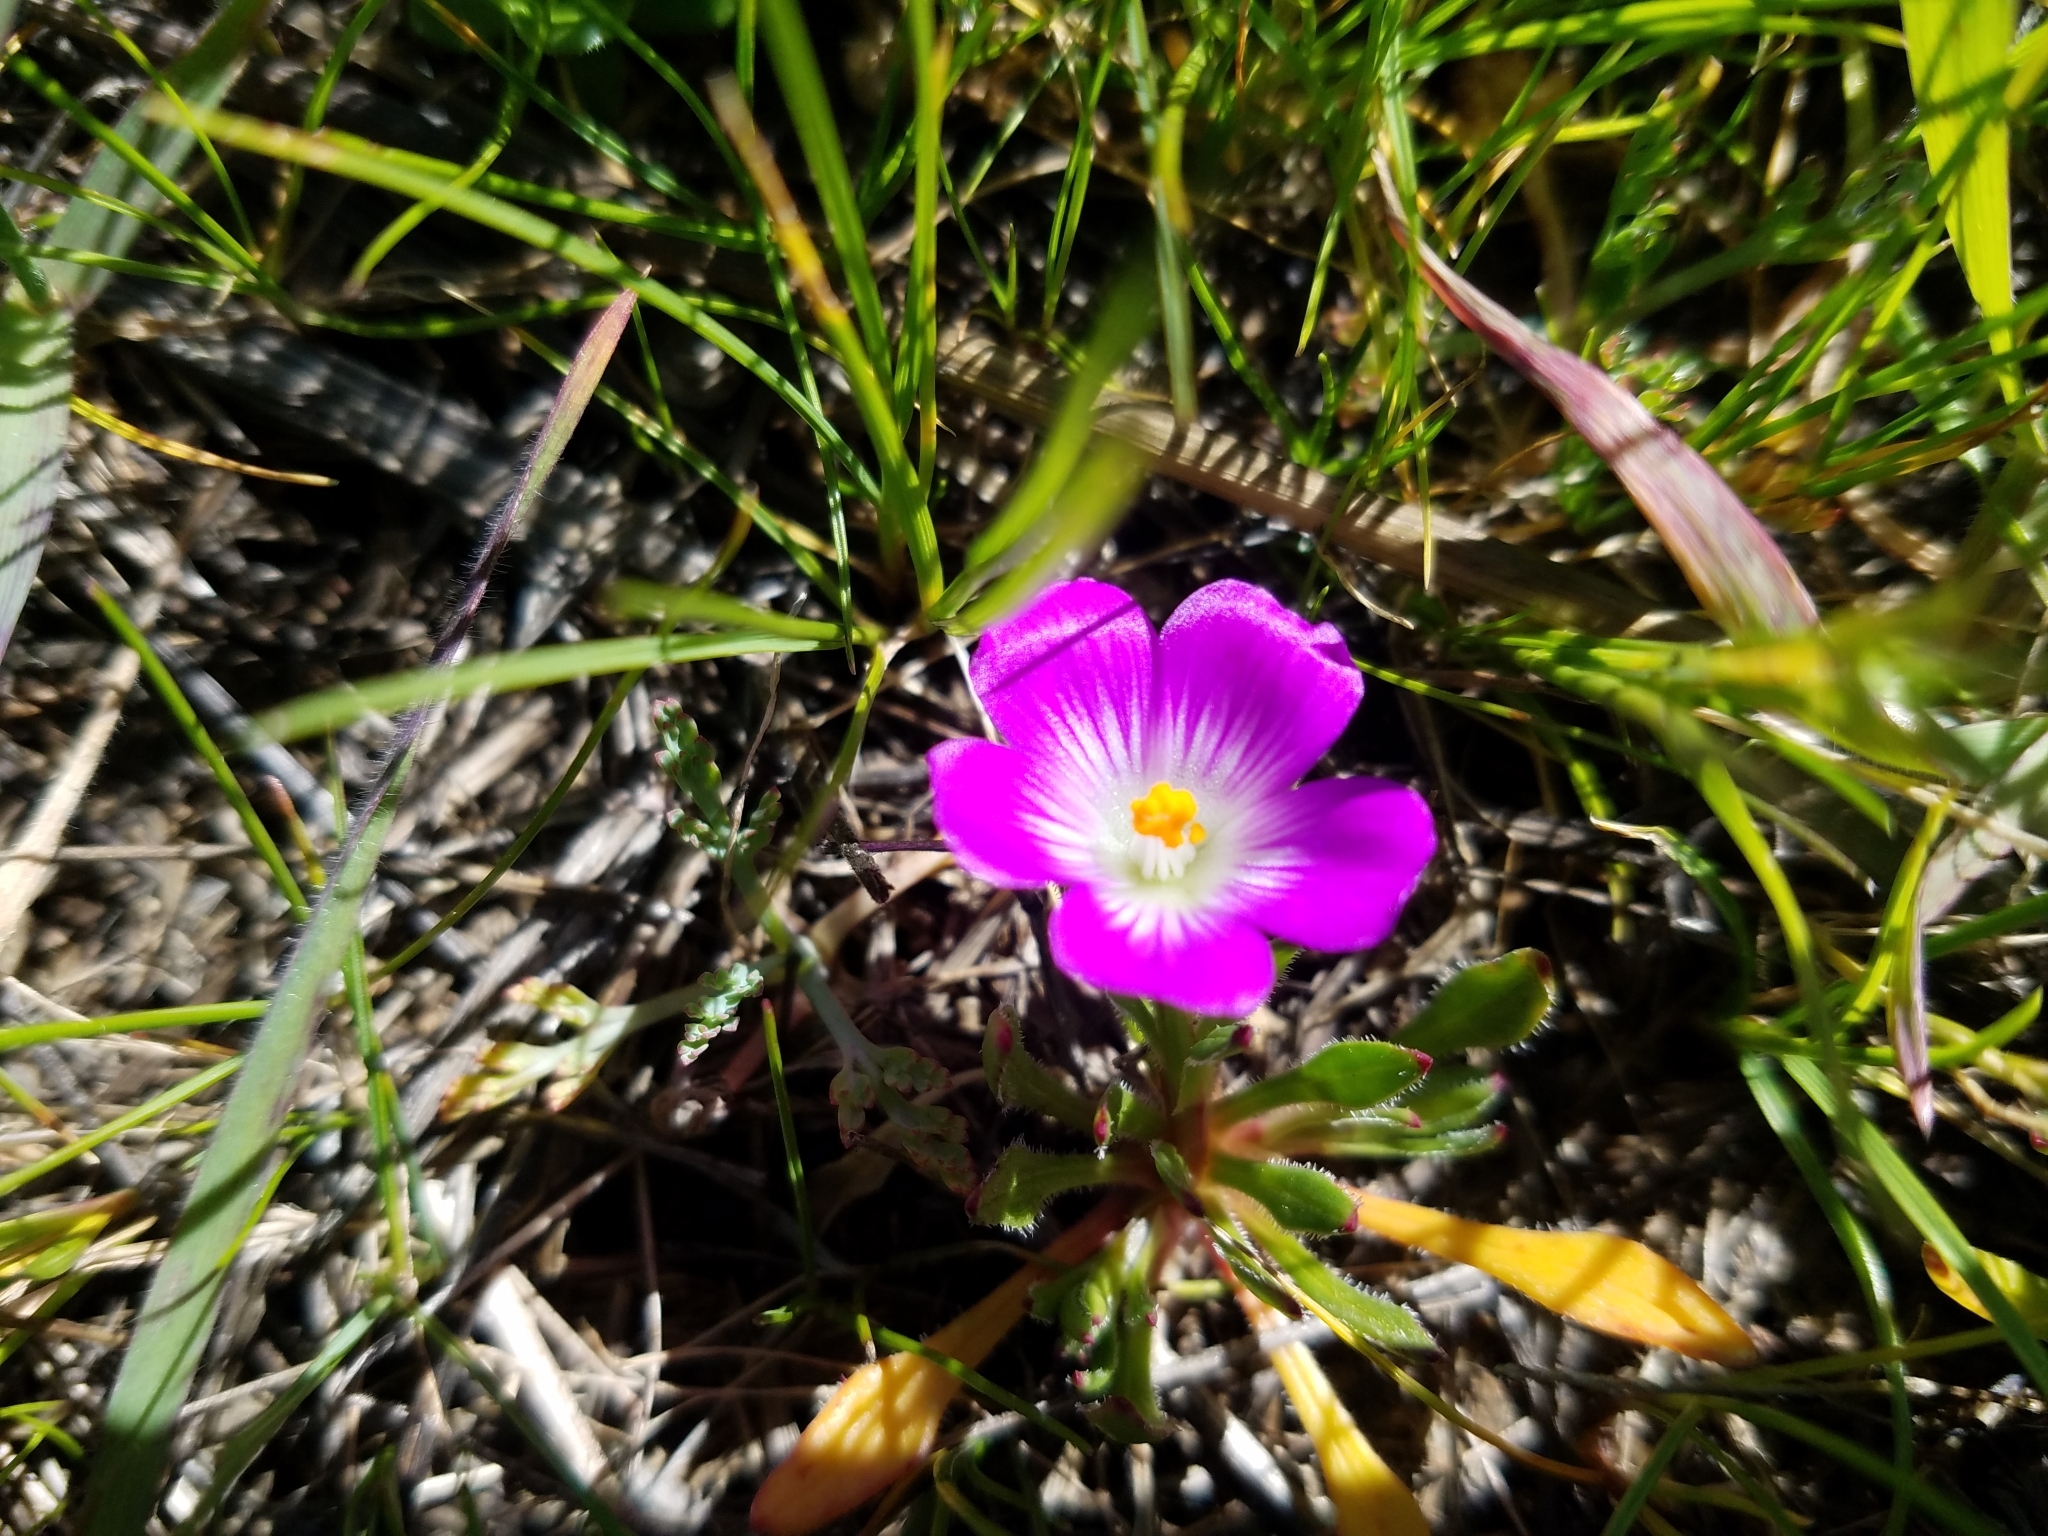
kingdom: Plantae
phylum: Tracheophyta
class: Magnoliopsida
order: Caryophyllales
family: Montiaceae
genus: Calandrinia
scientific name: Calandrinia menziesii
